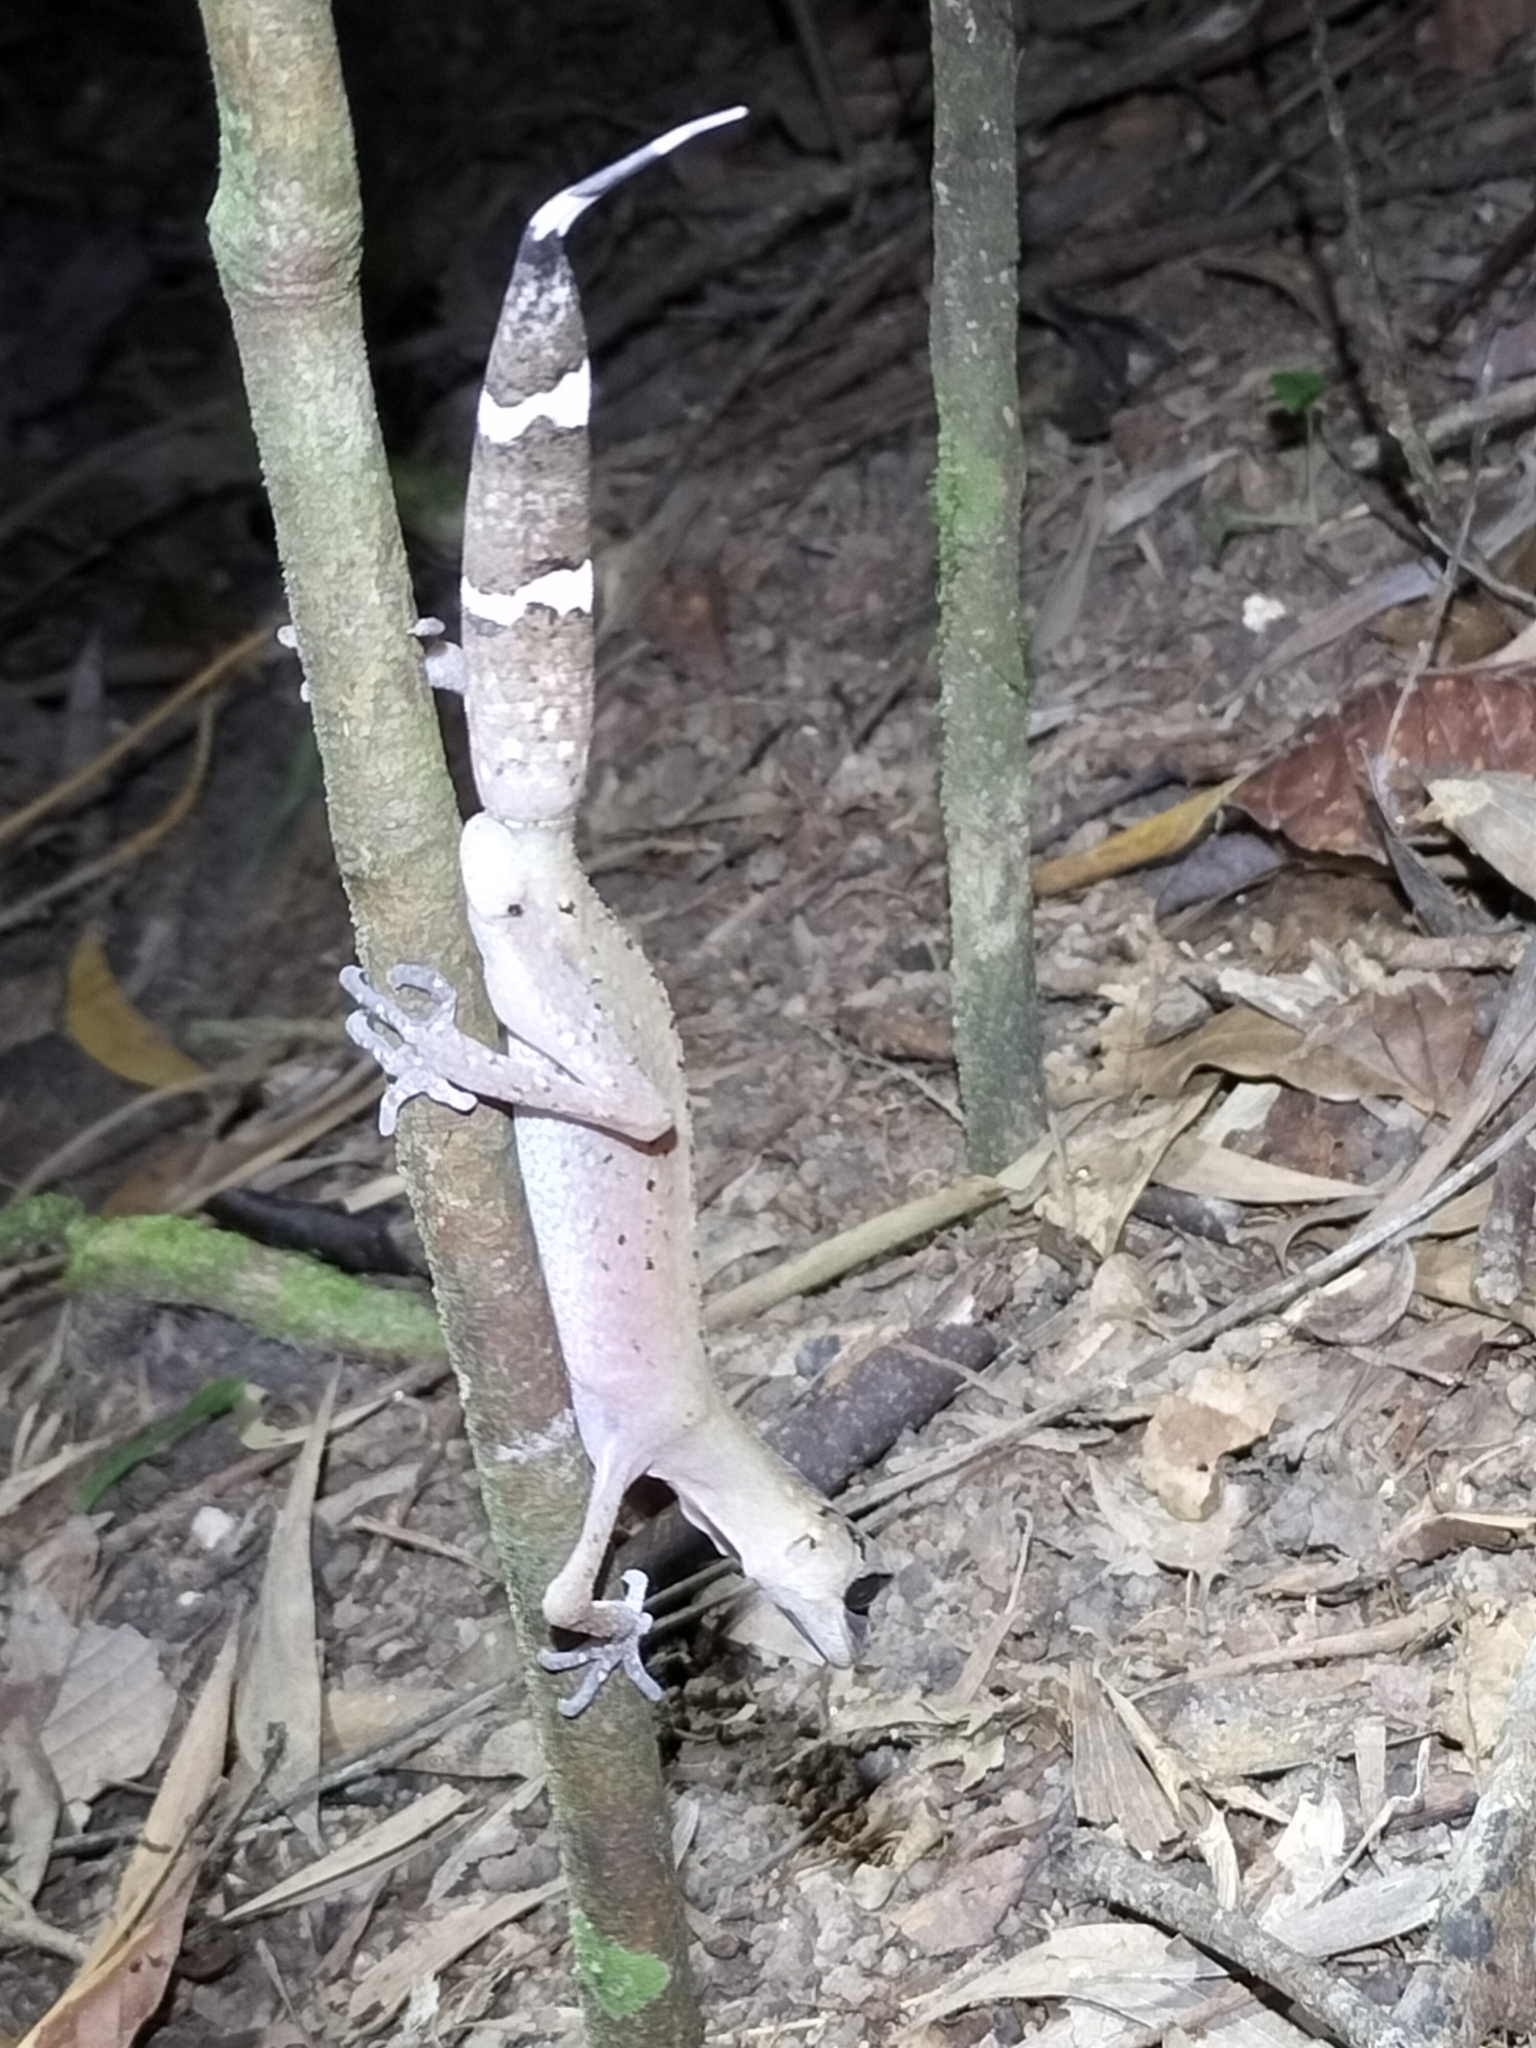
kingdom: Animalia
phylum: Chordata
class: Squamata
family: Carphodactylidae
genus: Carphodactylus
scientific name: Carphodactylus laevis
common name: Chameleon gecko
